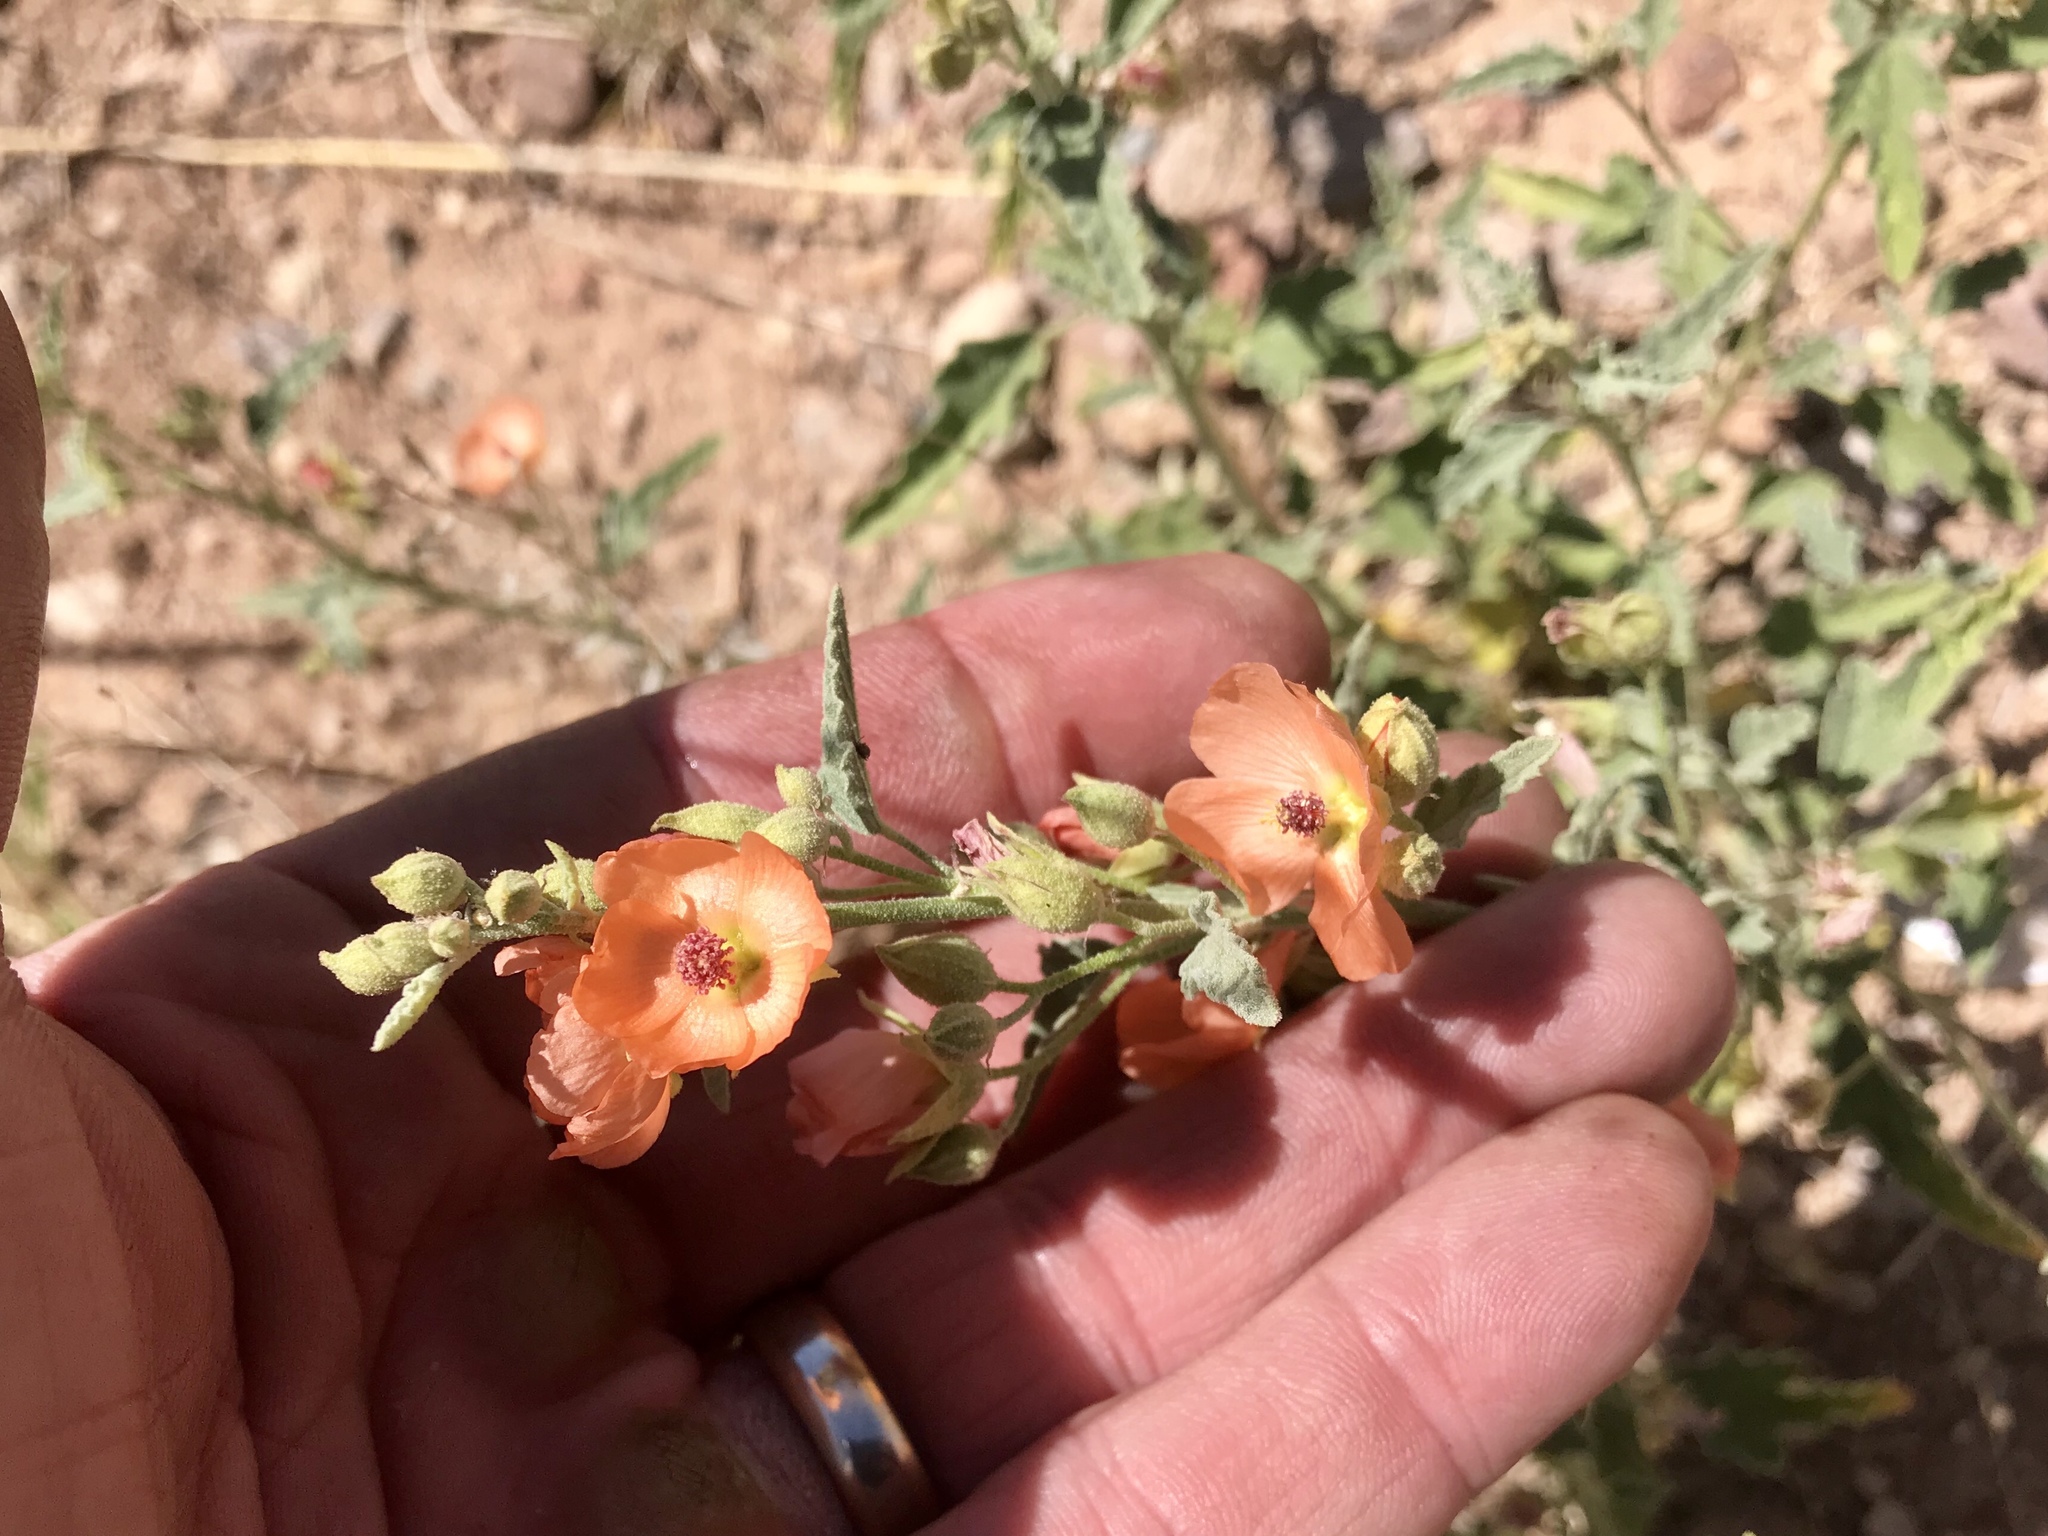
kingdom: Plantae
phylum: Tracheophyta
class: Magnoliopsida
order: Malvales
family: Malvaceae
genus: Sphaeralcea
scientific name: Sphaeralcea hastulata
